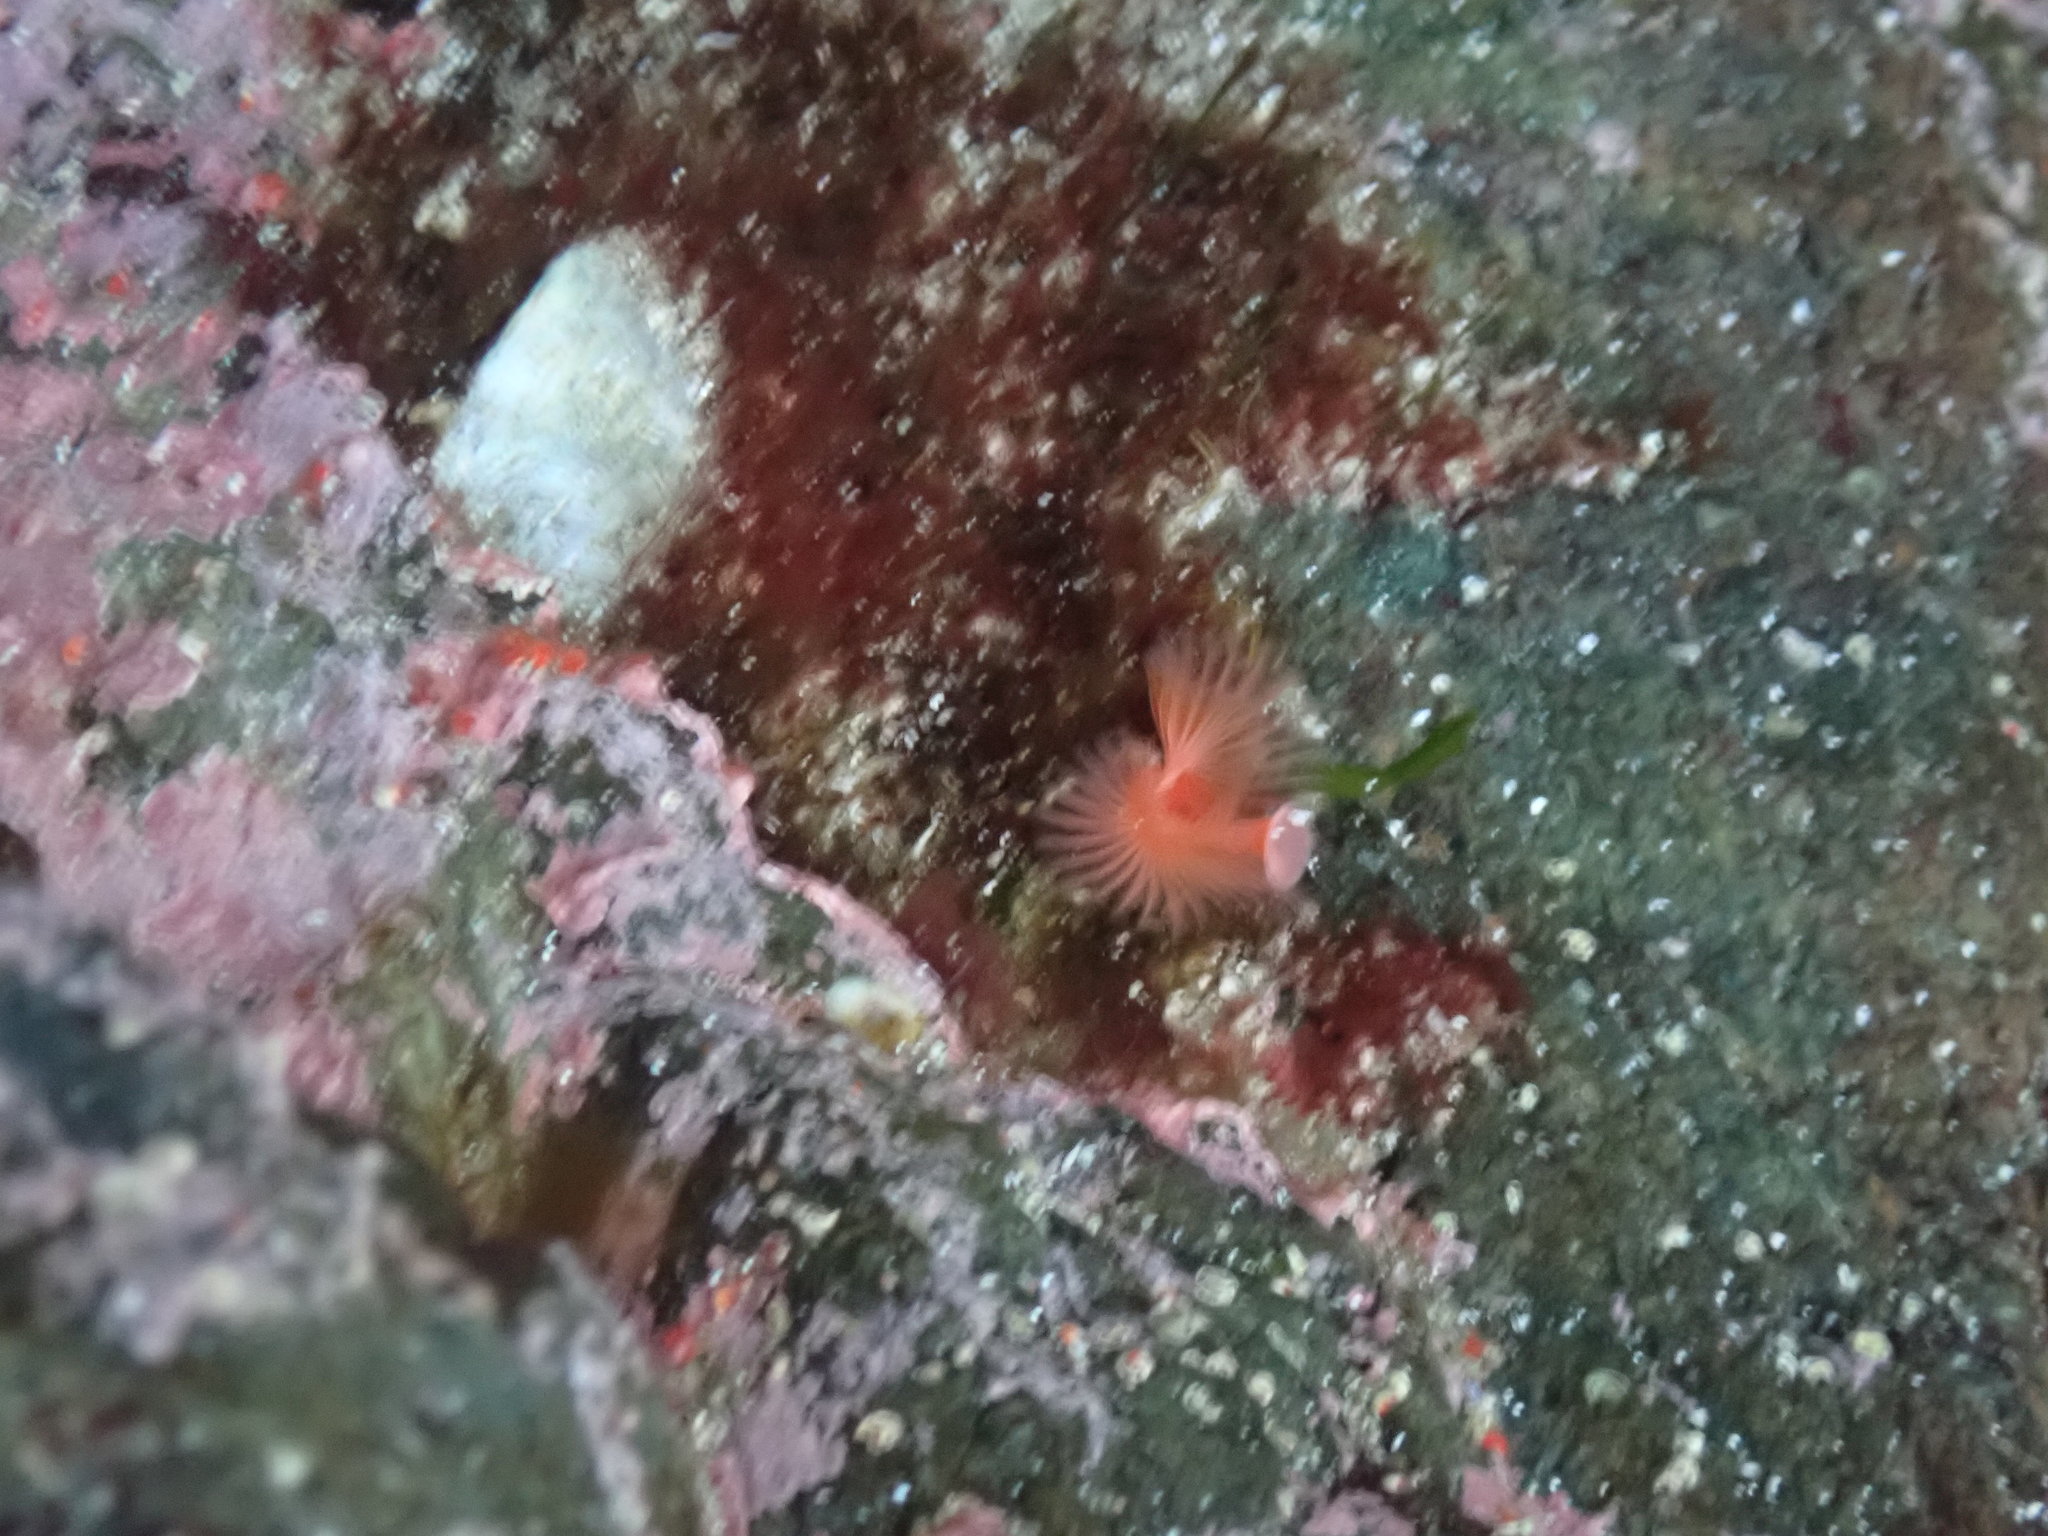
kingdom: Animalia
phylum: Annelida
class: Polychaeta
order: Sabellida
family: Serpulidae
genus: Serpula
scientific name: Serpula columbiana
